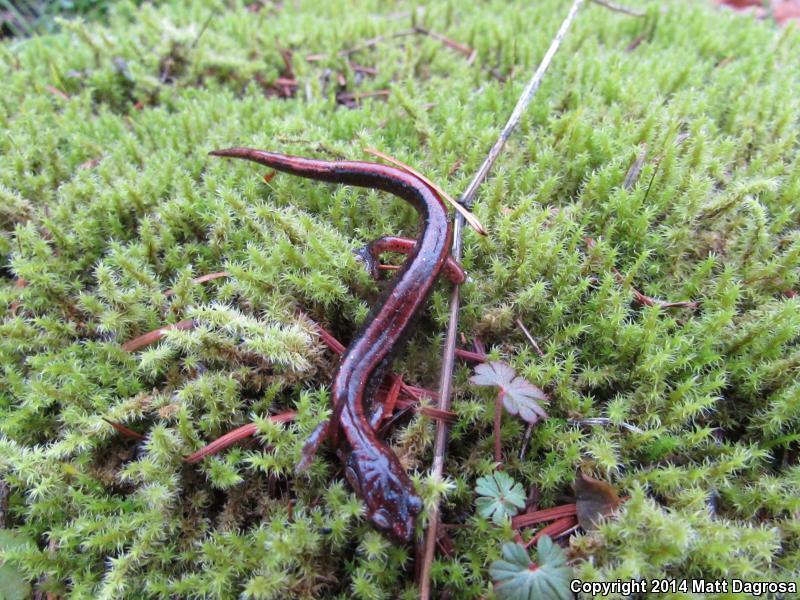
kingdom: Animalia
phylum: Chordata
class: Amphibia
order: Caudata
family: Plethodontidae
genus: Plethodon
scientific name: Plethodon vehiculum
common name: Western red-backed salamander
